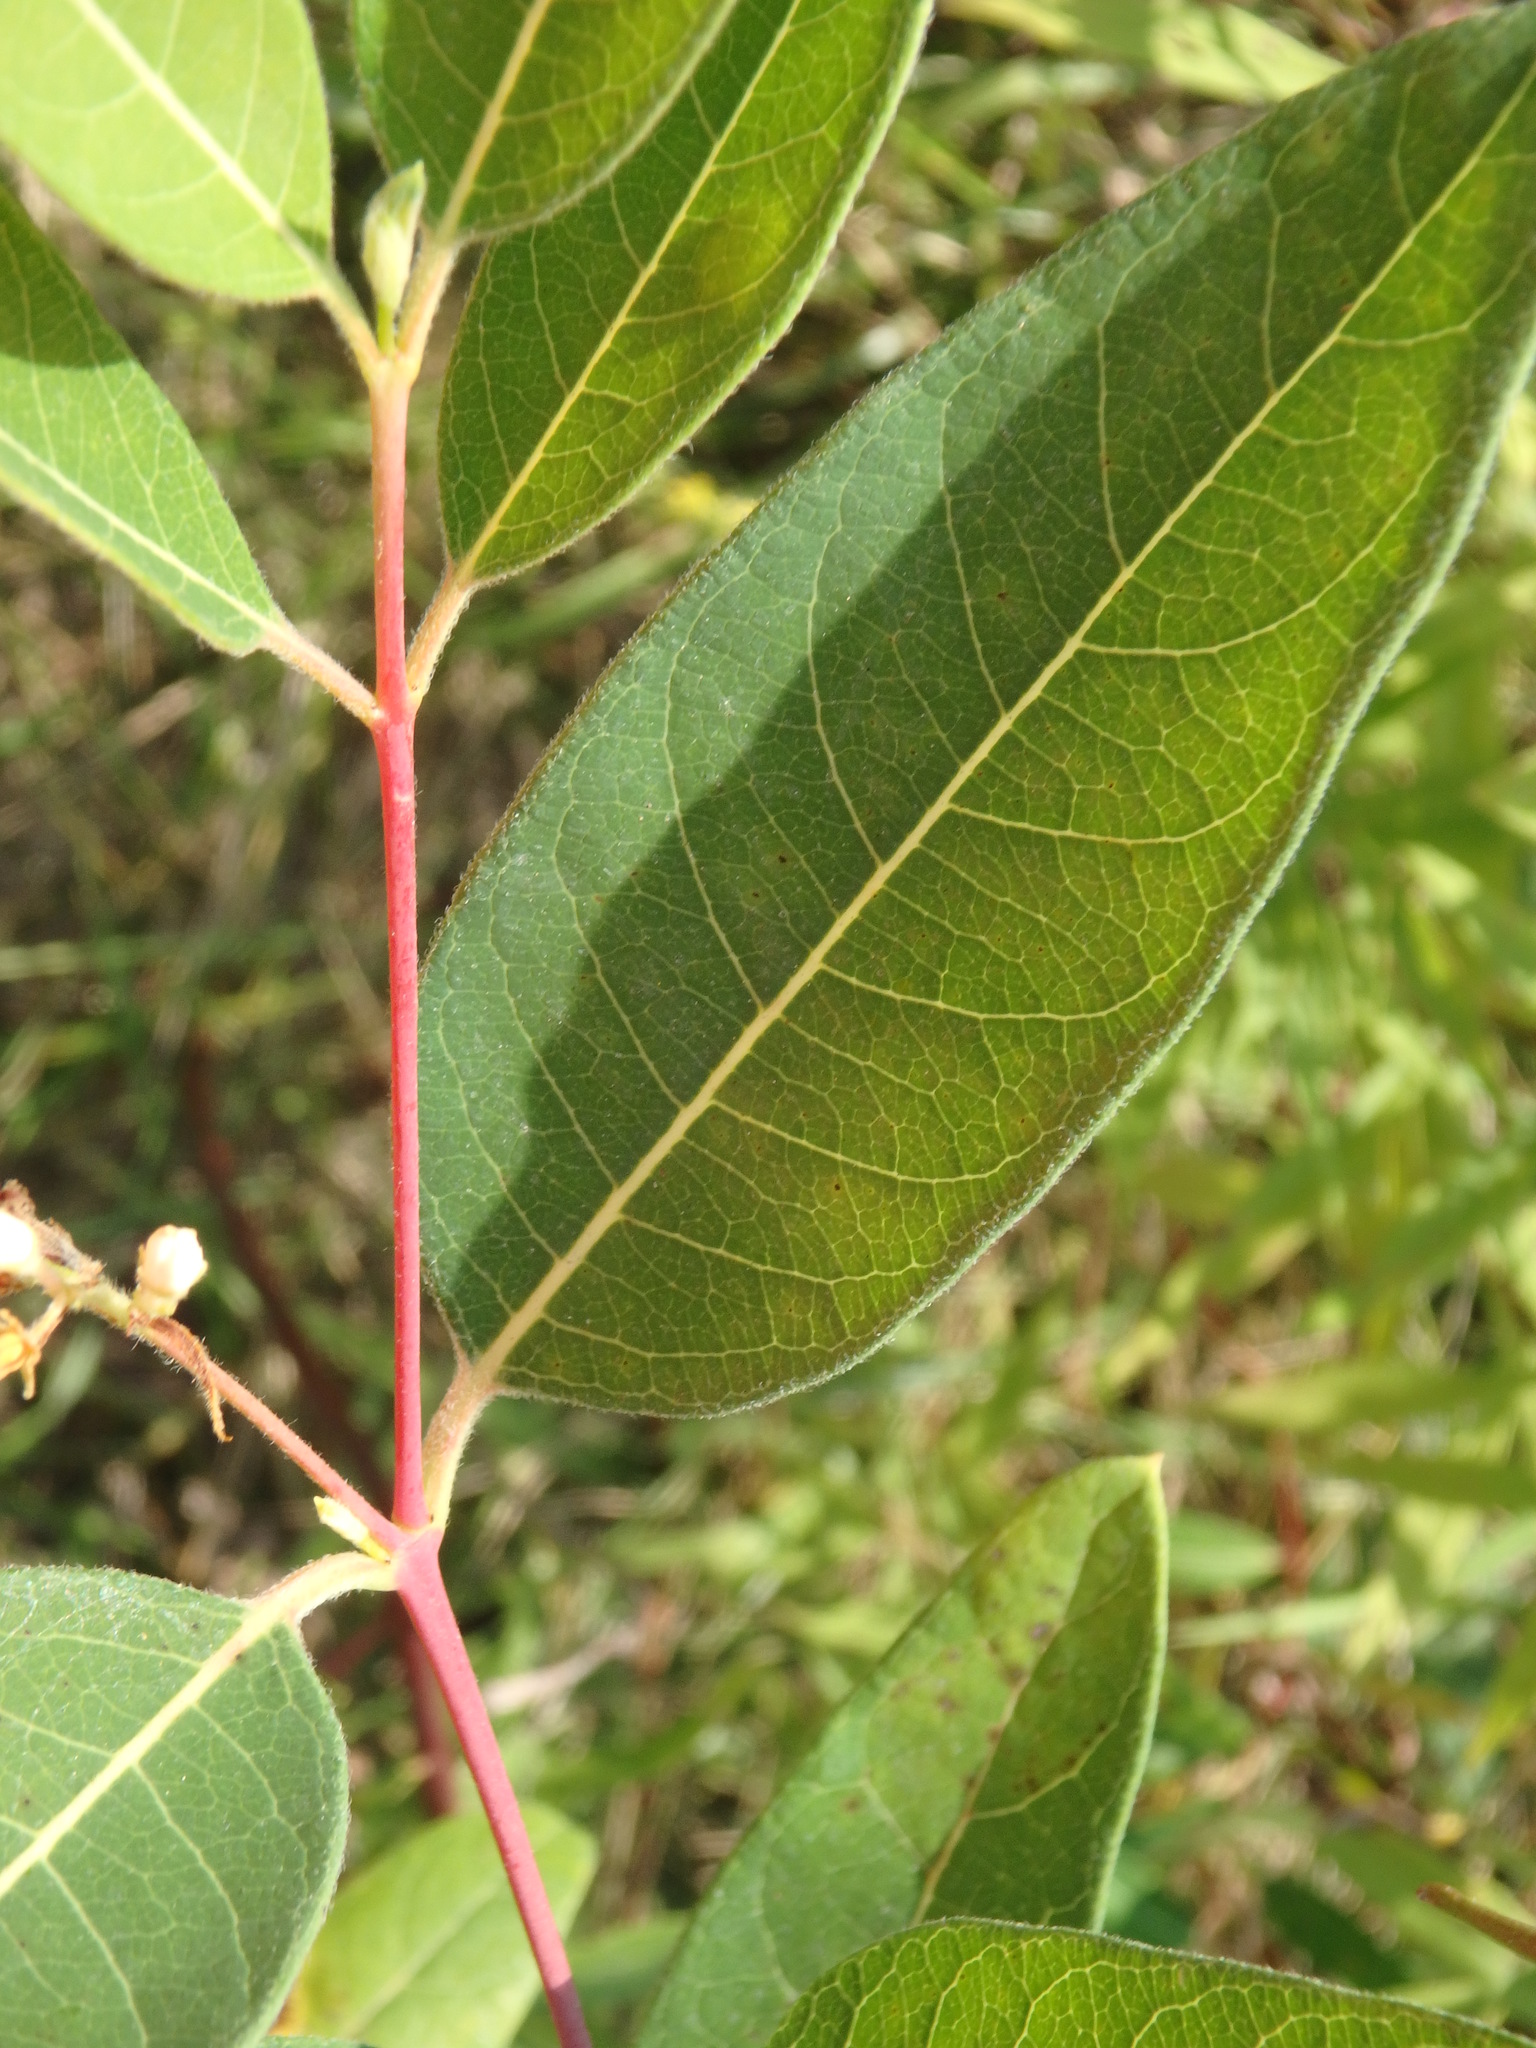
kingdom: Plantae
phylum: Tracheophyta
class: Magnoliopsida
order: Gentianales
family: Apocynaceae
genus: Apocynum
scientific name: Apocynum cannabinum
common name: Hemp dogbane
